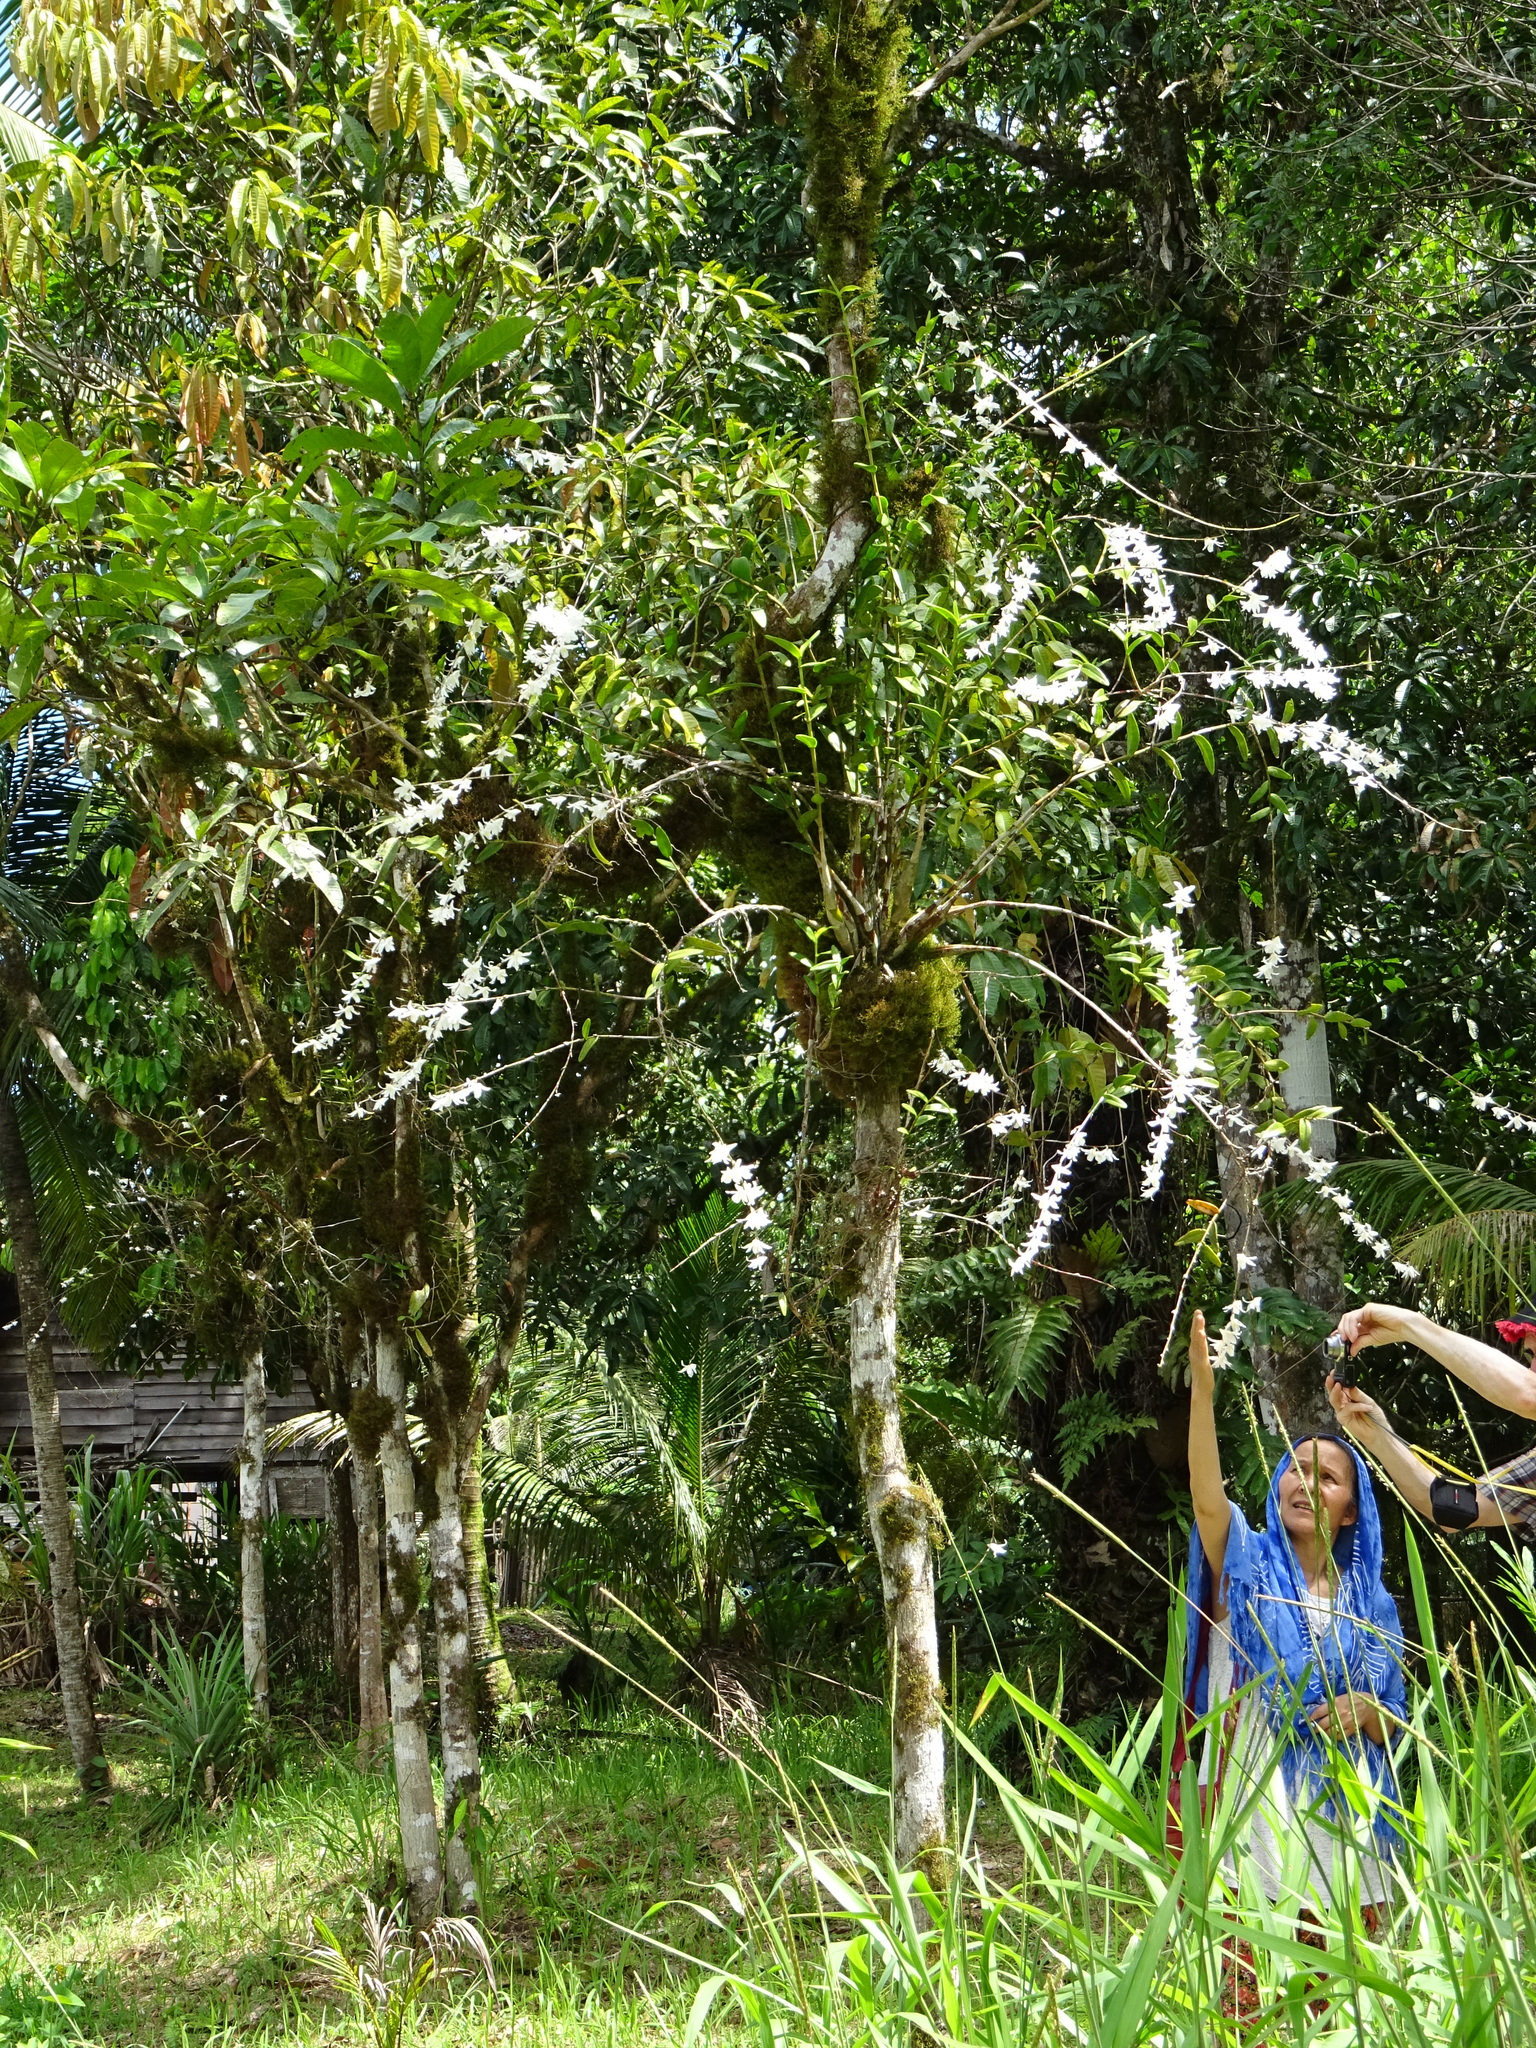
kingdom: Plantae
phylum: Tracheophyta
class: Liliopsida
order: Asparagales
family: Orchidaceae
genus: Dendrobium
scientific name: Dendrobium crumenatum
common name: Orchid
